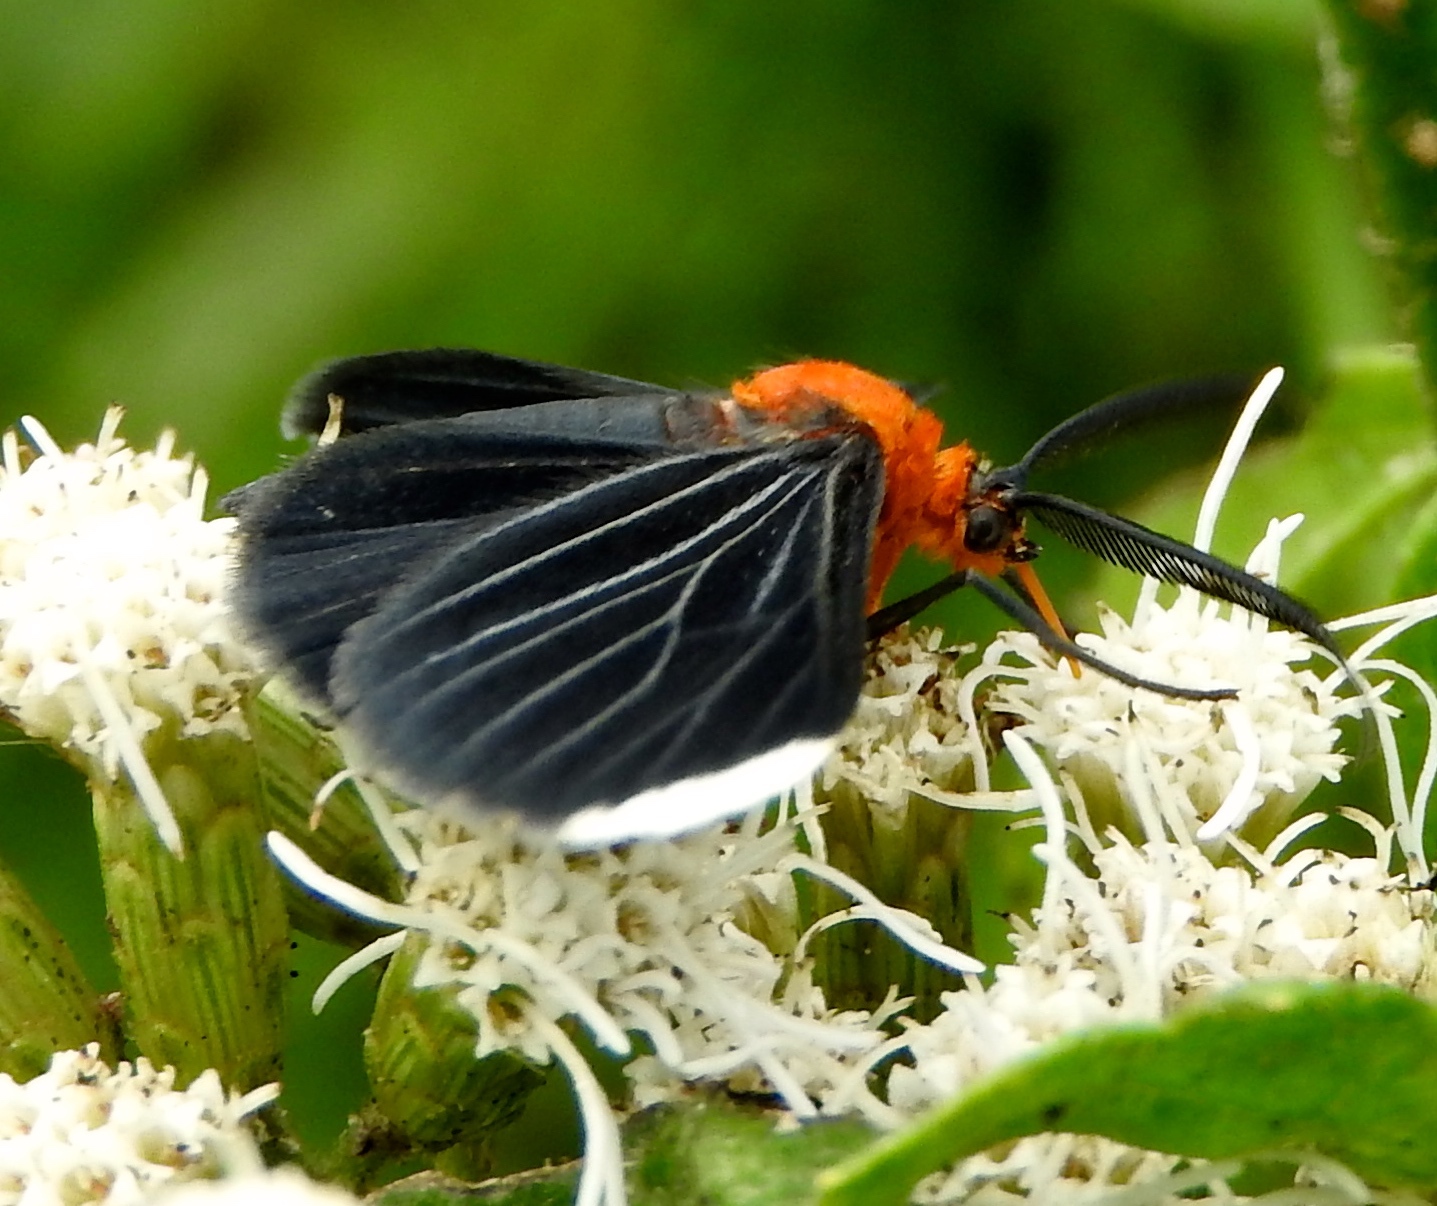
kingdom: Animalia
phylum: Arthropoda
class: Insecta
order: Lepidoptera
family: Geometridae
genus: Melanchroia
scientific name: Melanchroia chephise
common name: White-tipped black
